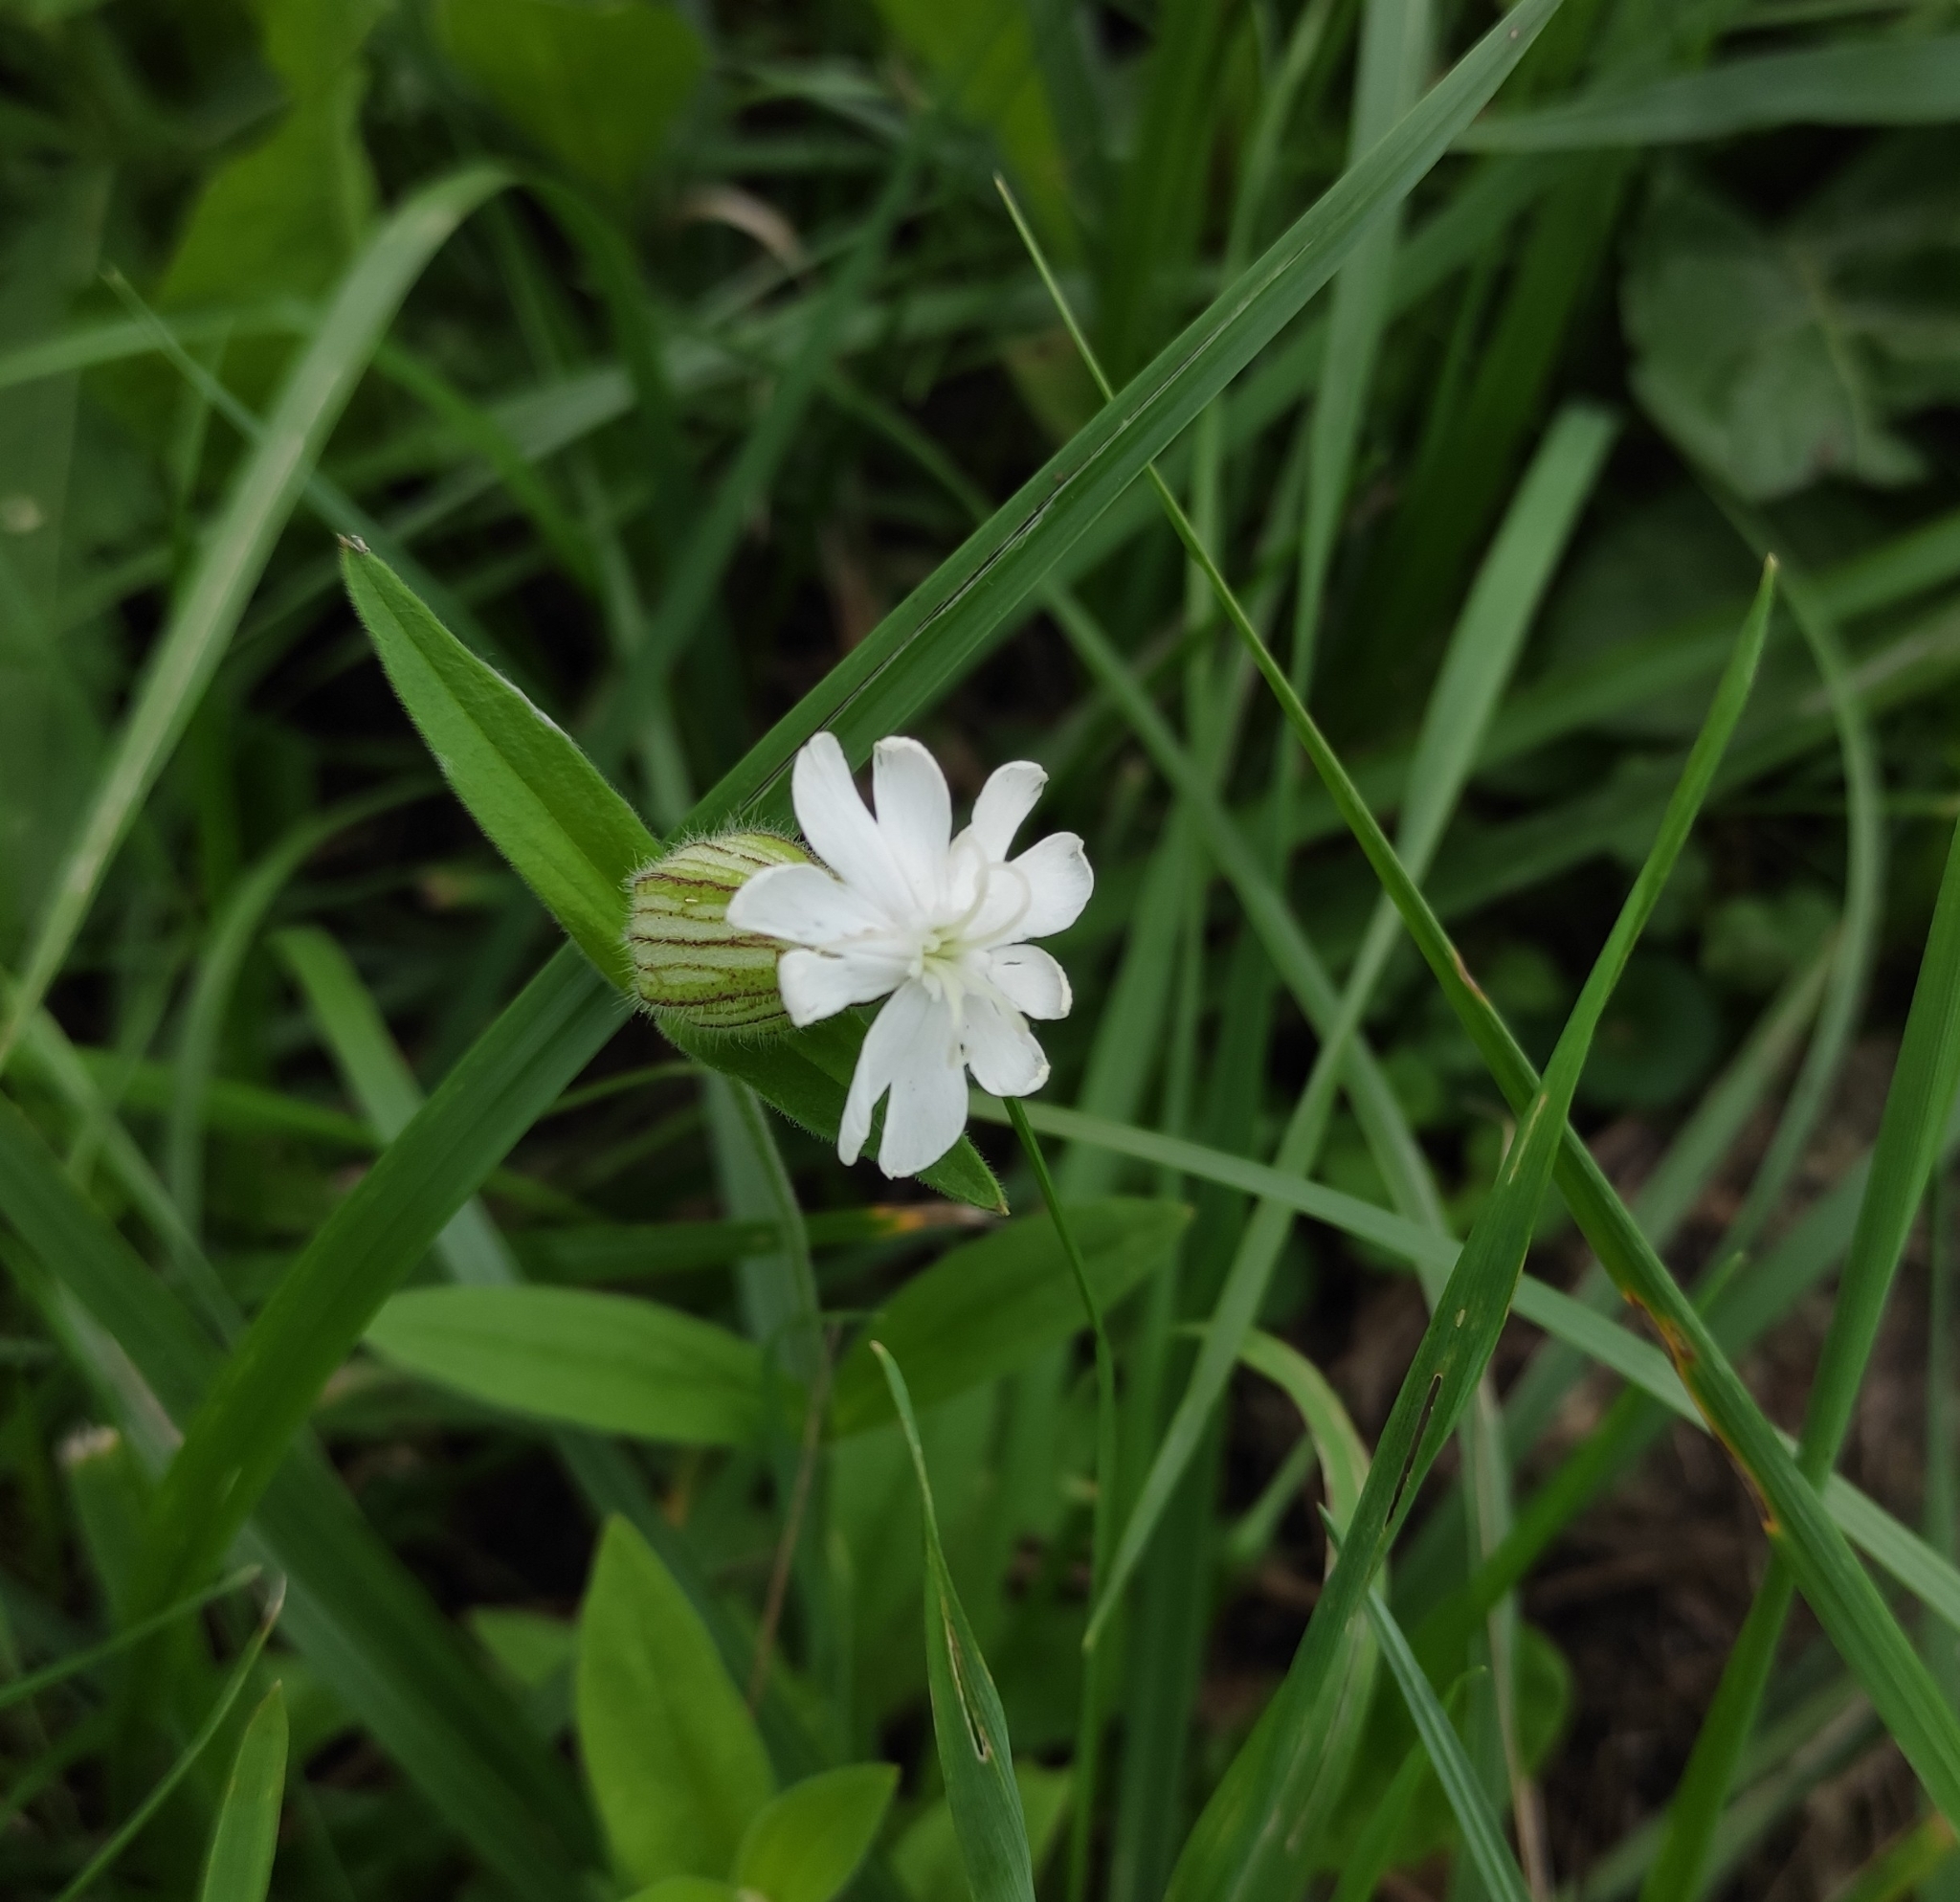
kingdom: Plantae
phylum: Tracheophyta
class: Magnoliopsida
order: Caryophyllales
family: Caryophyllaceae
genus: Silene
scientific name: Silene latifolia
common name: White campion
